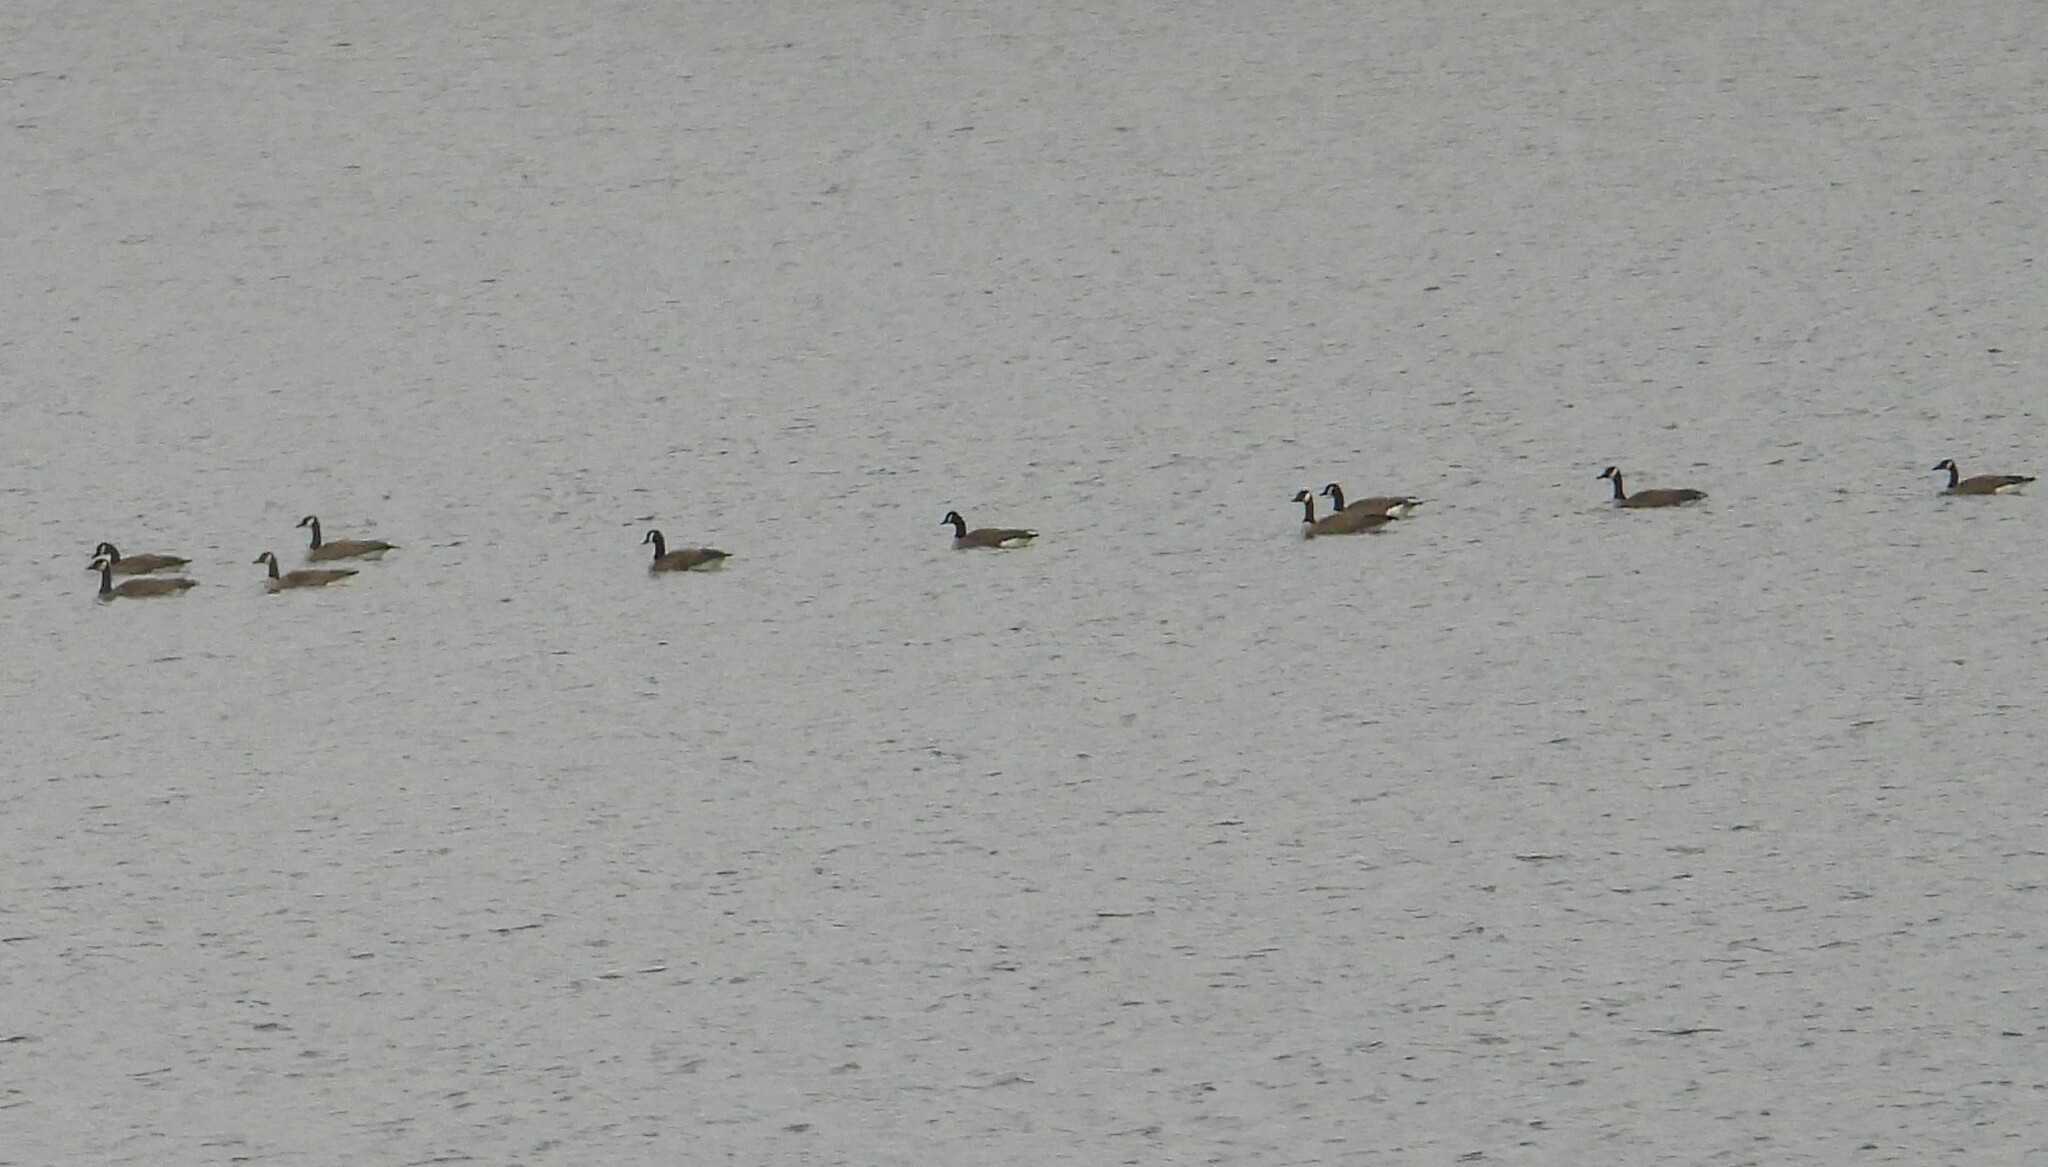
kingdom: Animalia
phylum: Chordata
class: Aves
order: Anseriformes
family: Anatidae
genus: Branta
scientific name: Branta canadensis
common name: Canada goose
